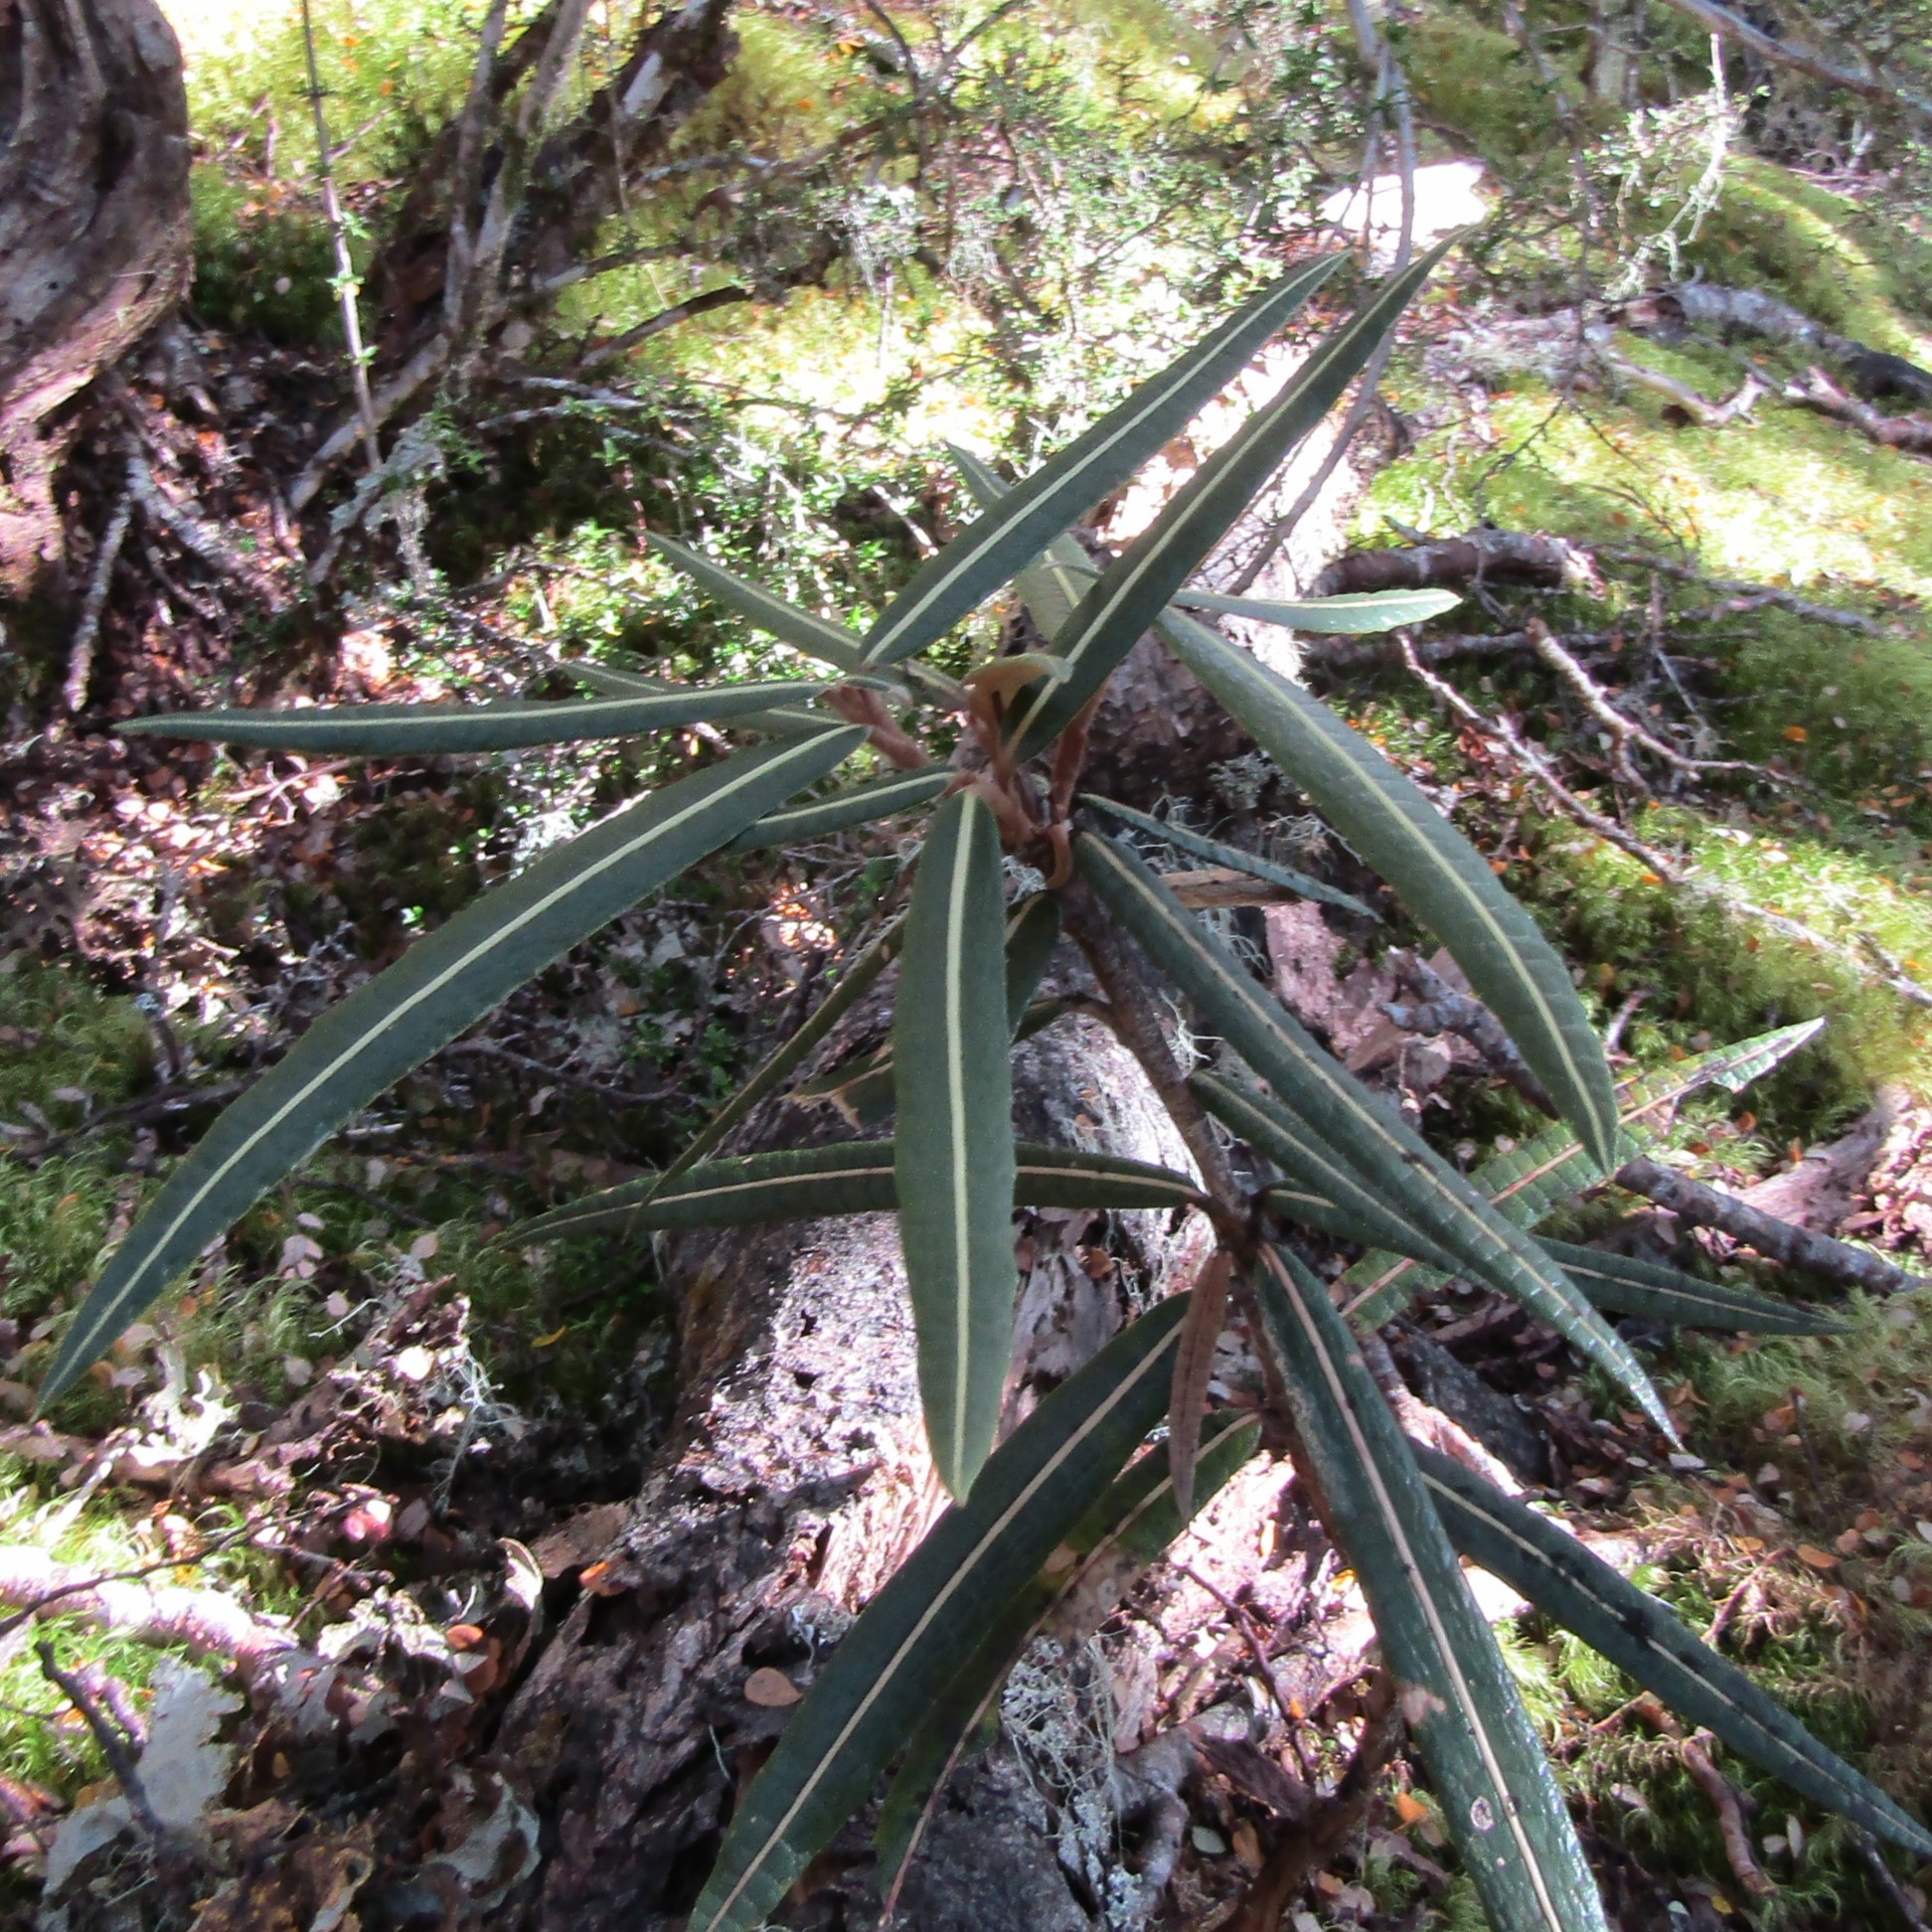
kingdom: Plantae
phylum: Tracheophyta
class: Magnoliopsida
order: Asterales
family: Asteraceae
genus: Olearia
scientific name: Olearia lacunosa
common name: Lancewood tree daisy
